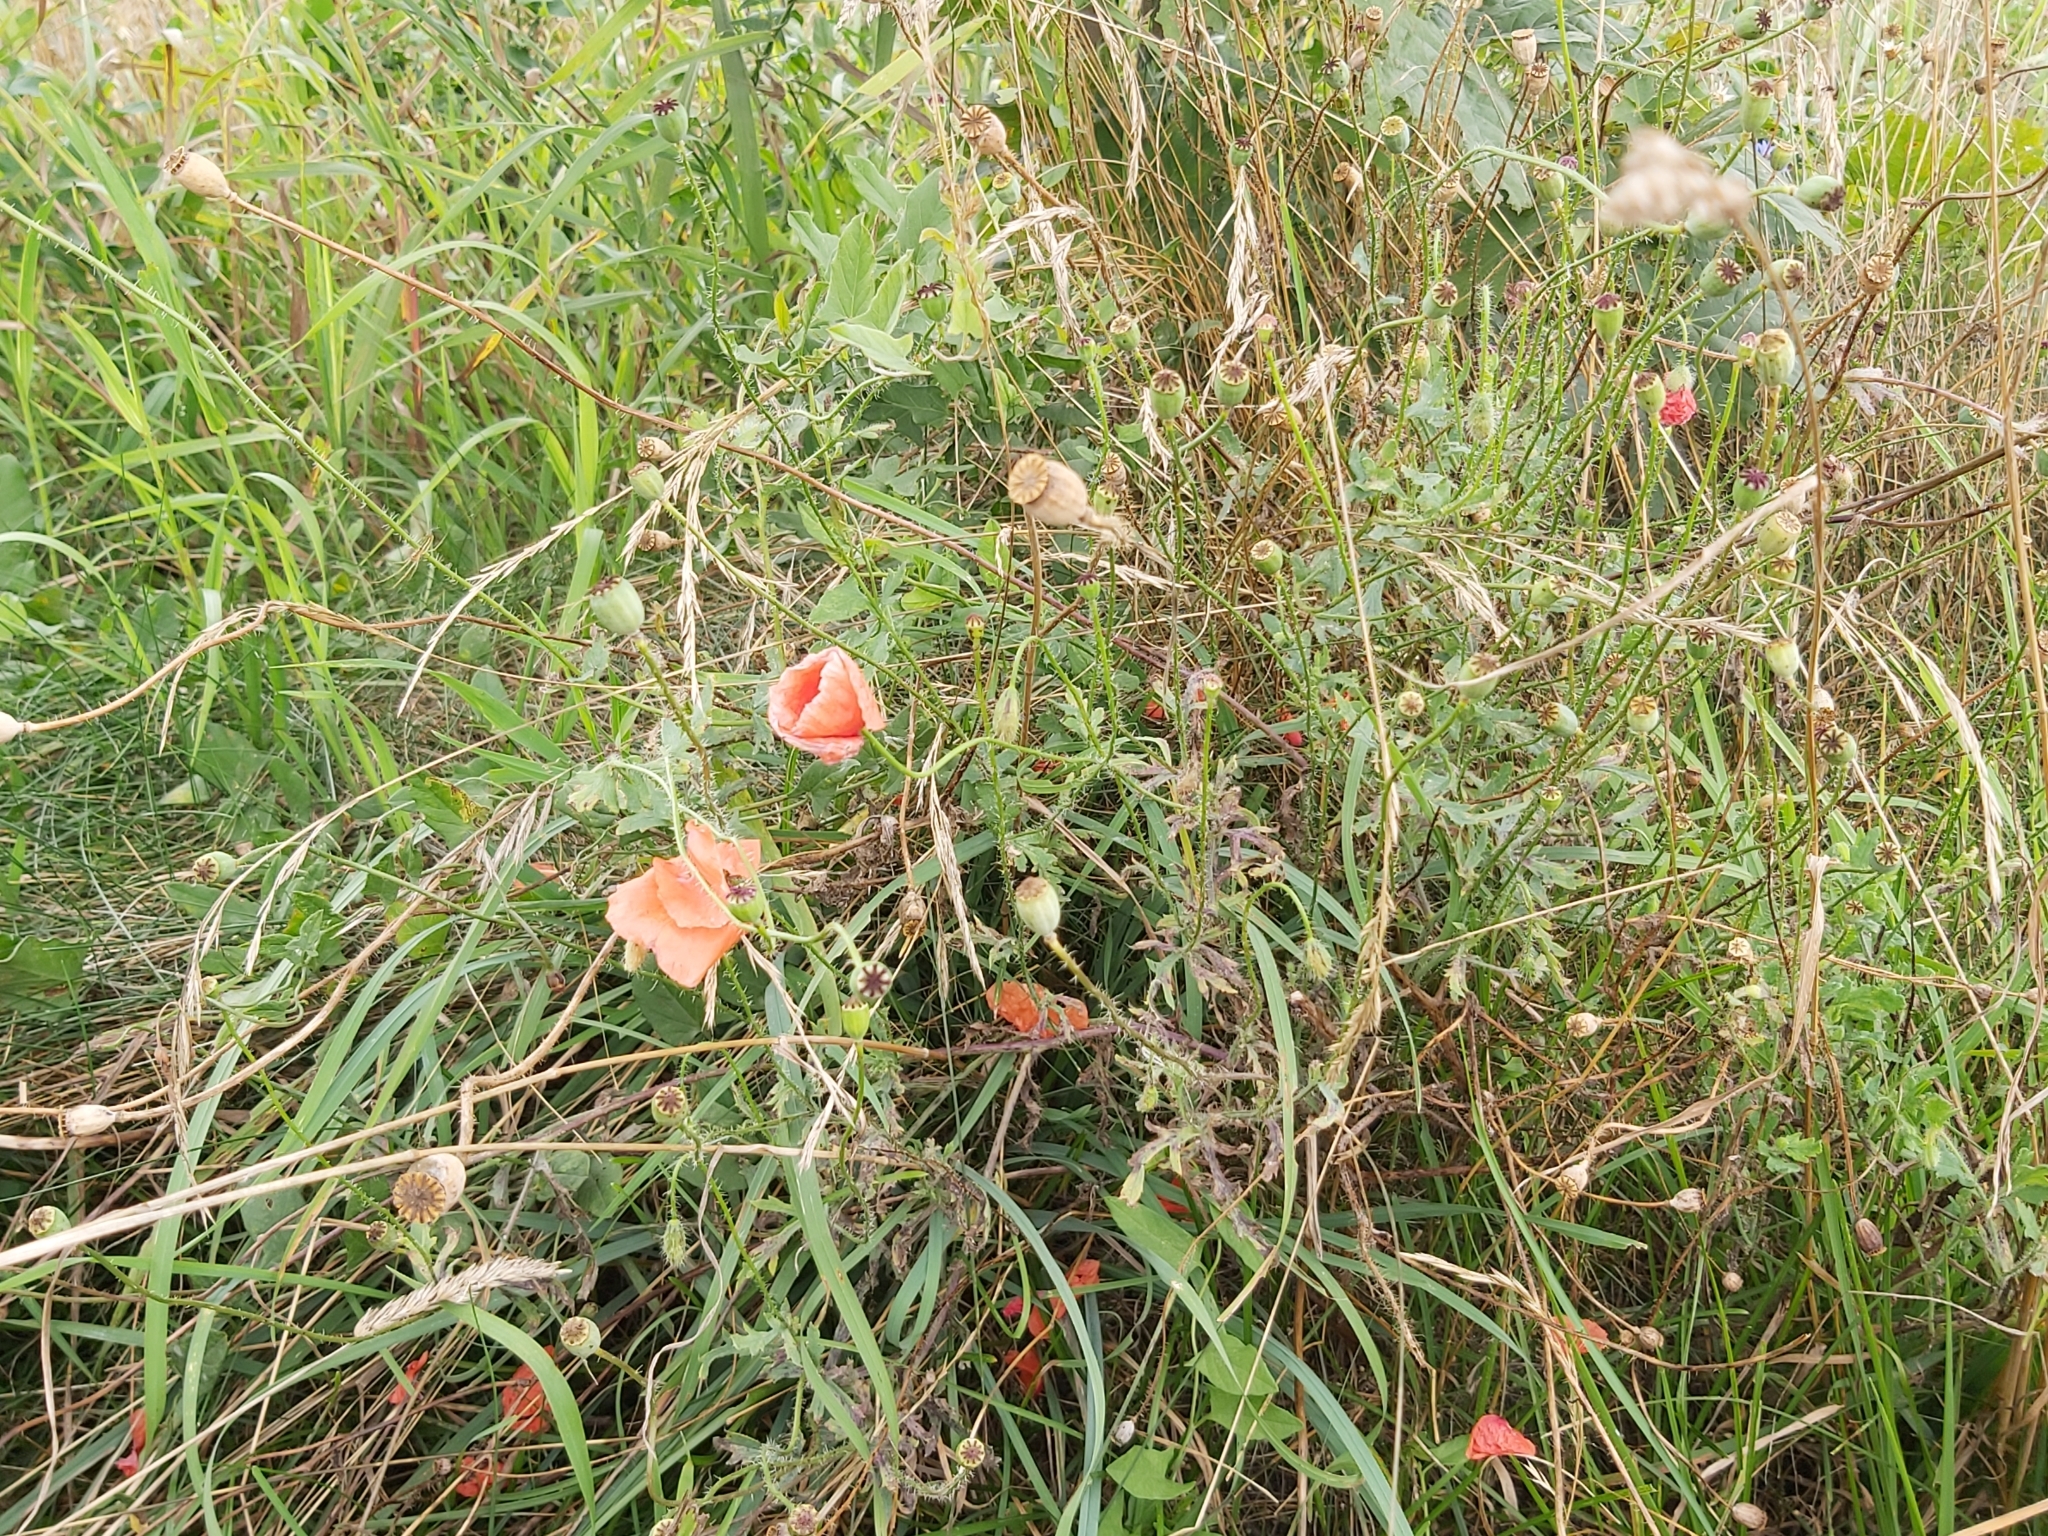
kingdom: Plantae
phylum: Tracheophyta
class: Magnoliopsida
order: Ranunculales
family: Papaveraceae
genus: Papaver
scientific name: Papaver rhoeas
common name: Corn poppy
